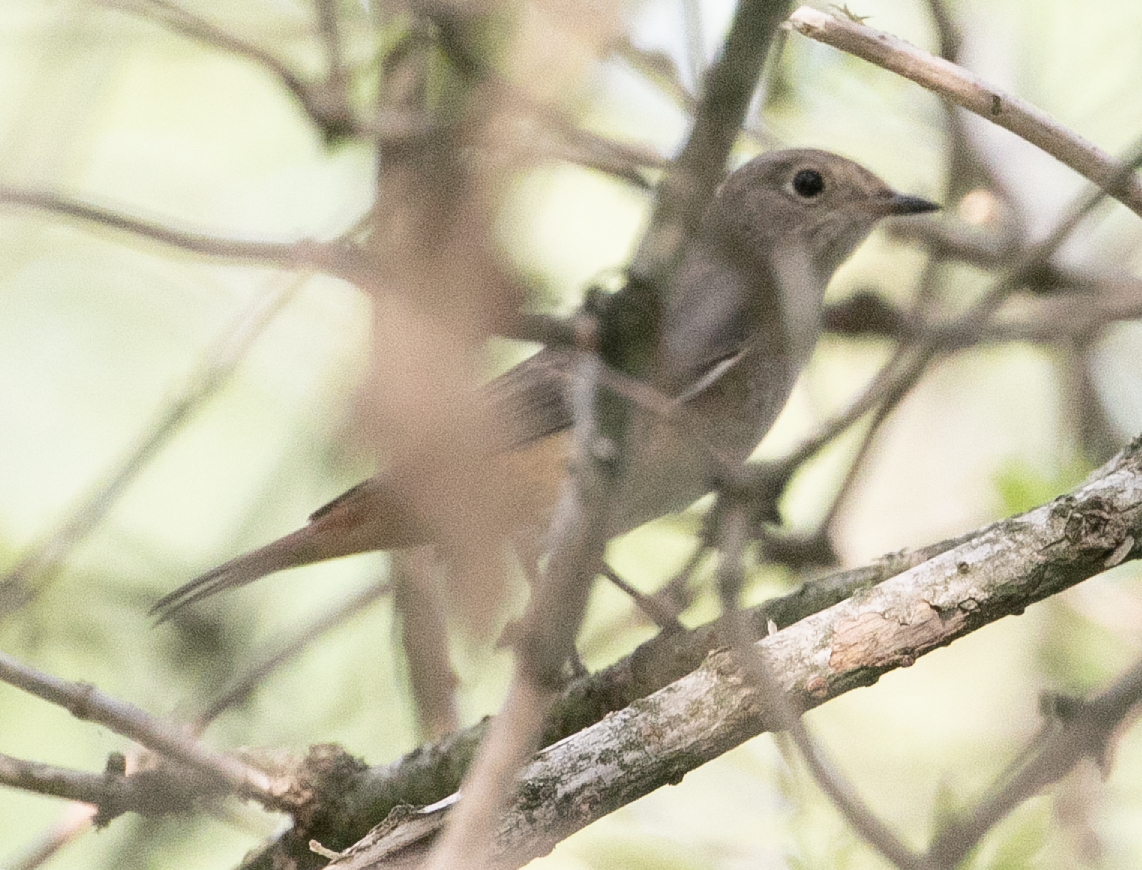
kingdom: Animalia
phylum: Chordata
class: Aves
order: Passeriformes
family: Muscicapidae
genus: Phoenicurus
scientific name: Phoenicurus phoenicurus
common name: Common redstart
